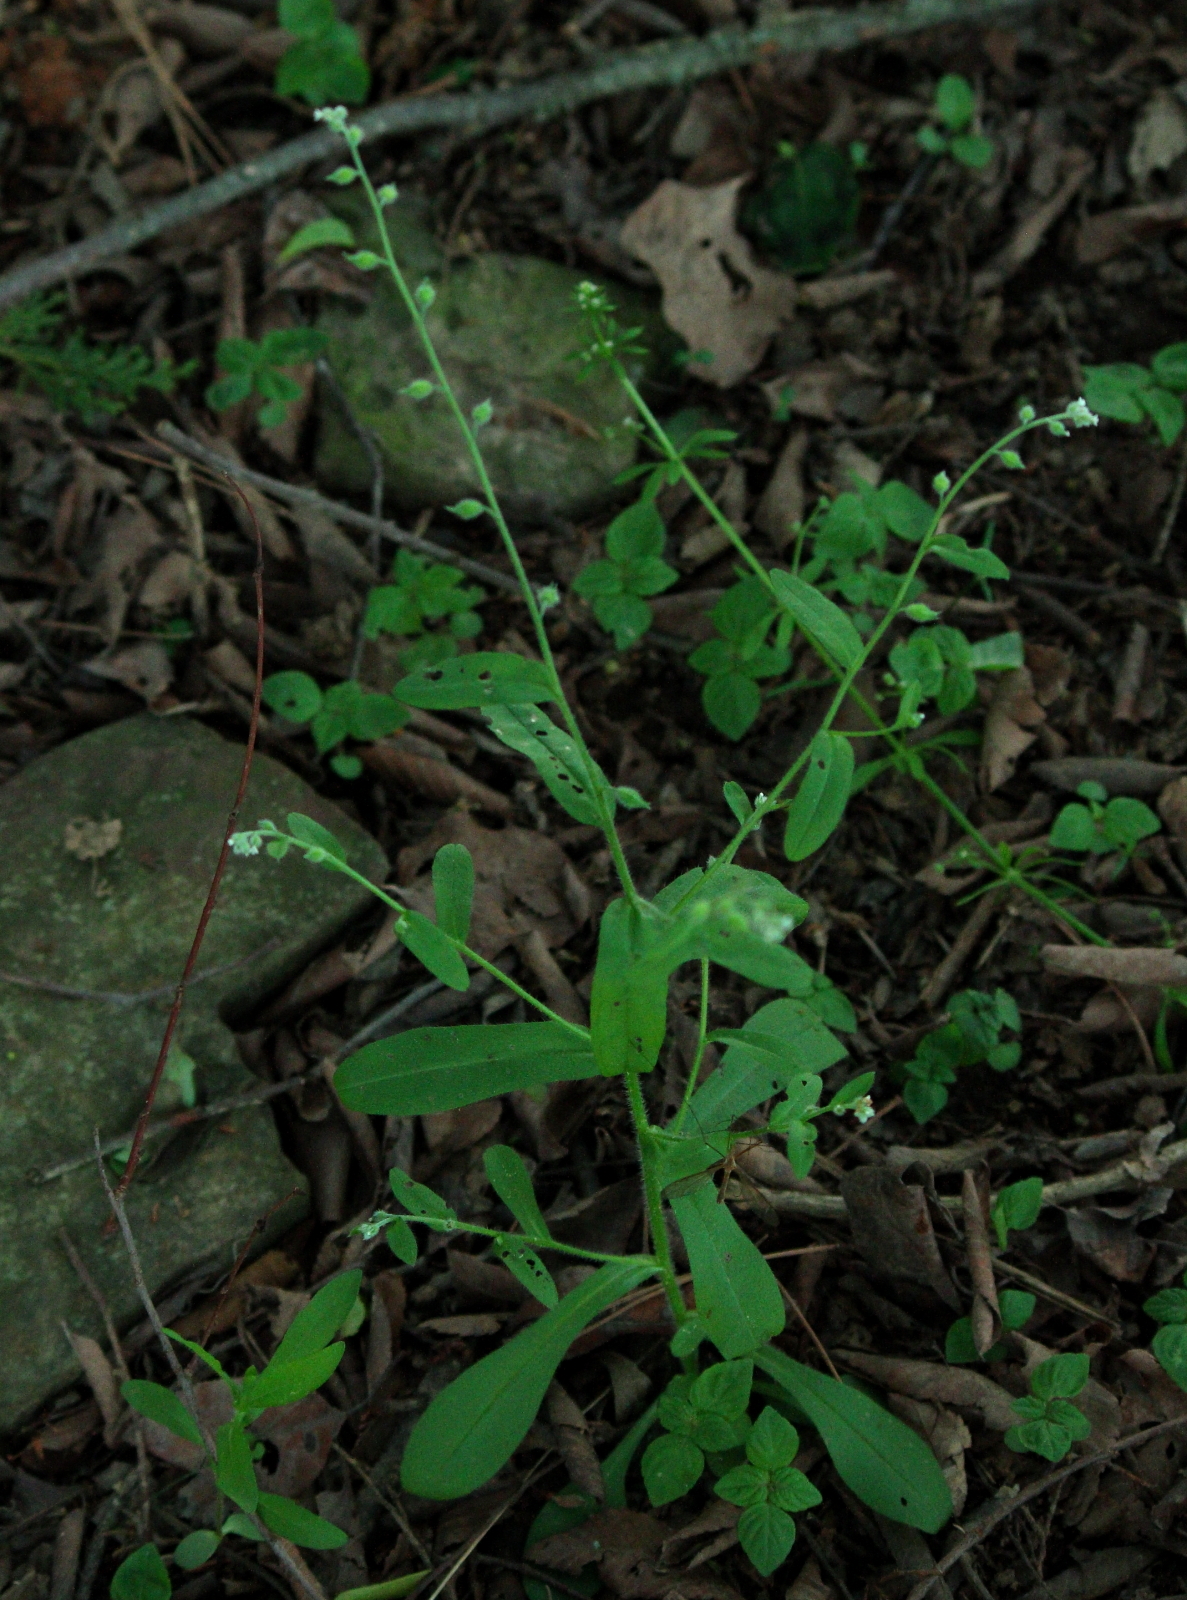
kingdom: Plantae
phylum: Tracheophyta
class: Magnoliopsida
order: Boraginales
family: Boraginaceae
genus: Myosotis
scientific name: Myosotis macrosperma
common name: Large-seed forget-me-not
